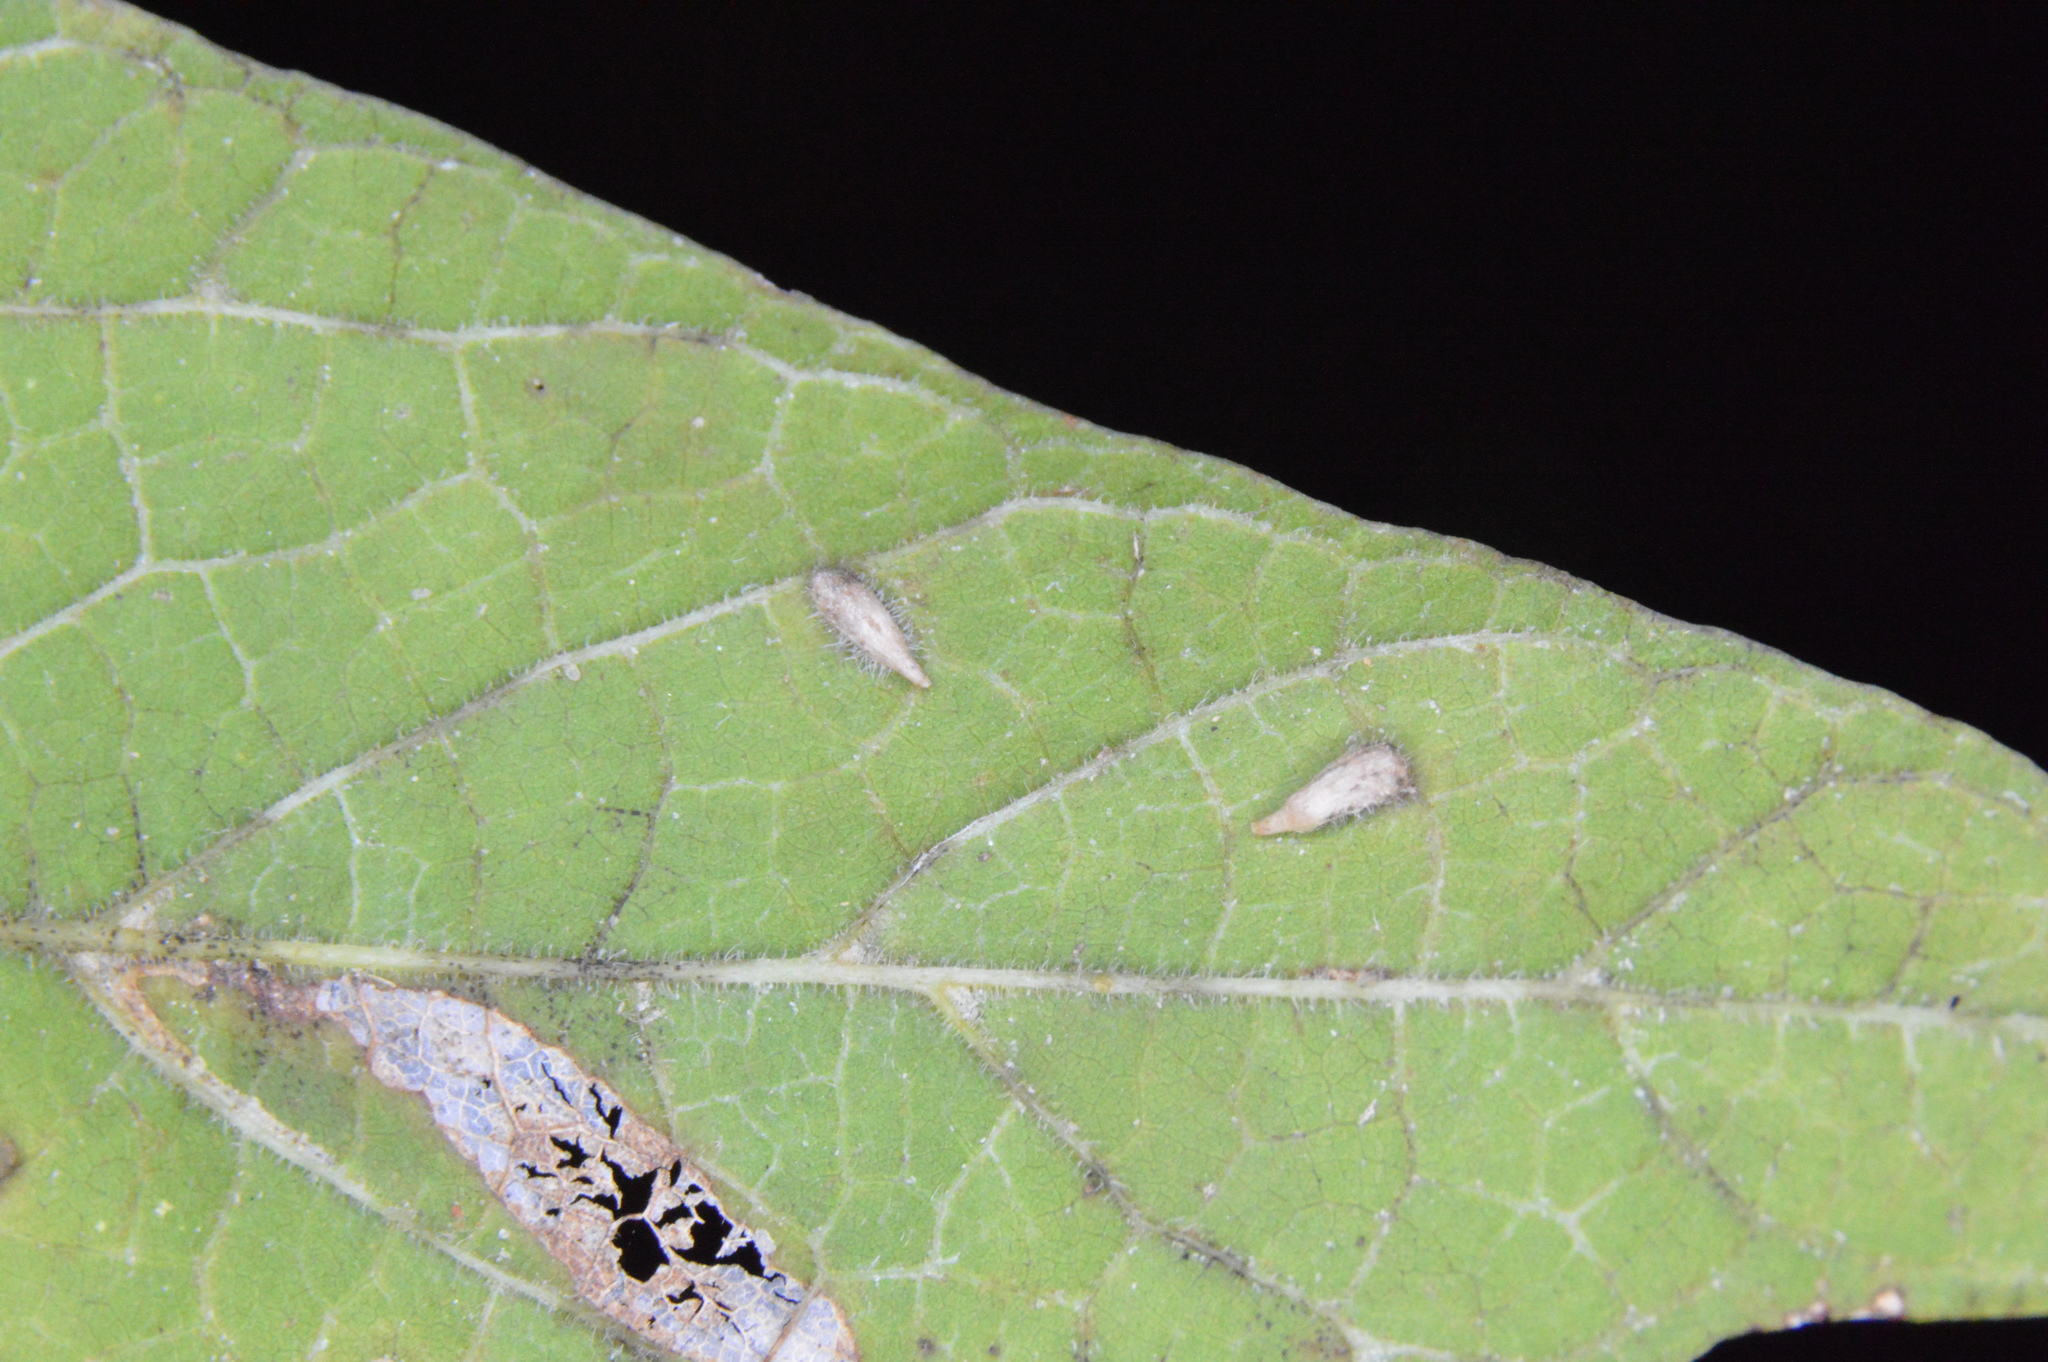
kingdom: Animalia
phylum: Arthropoda
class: Insecta
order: Diptera
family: Cecidomyiidae
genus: Celticecis
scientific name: Celticecis supina
